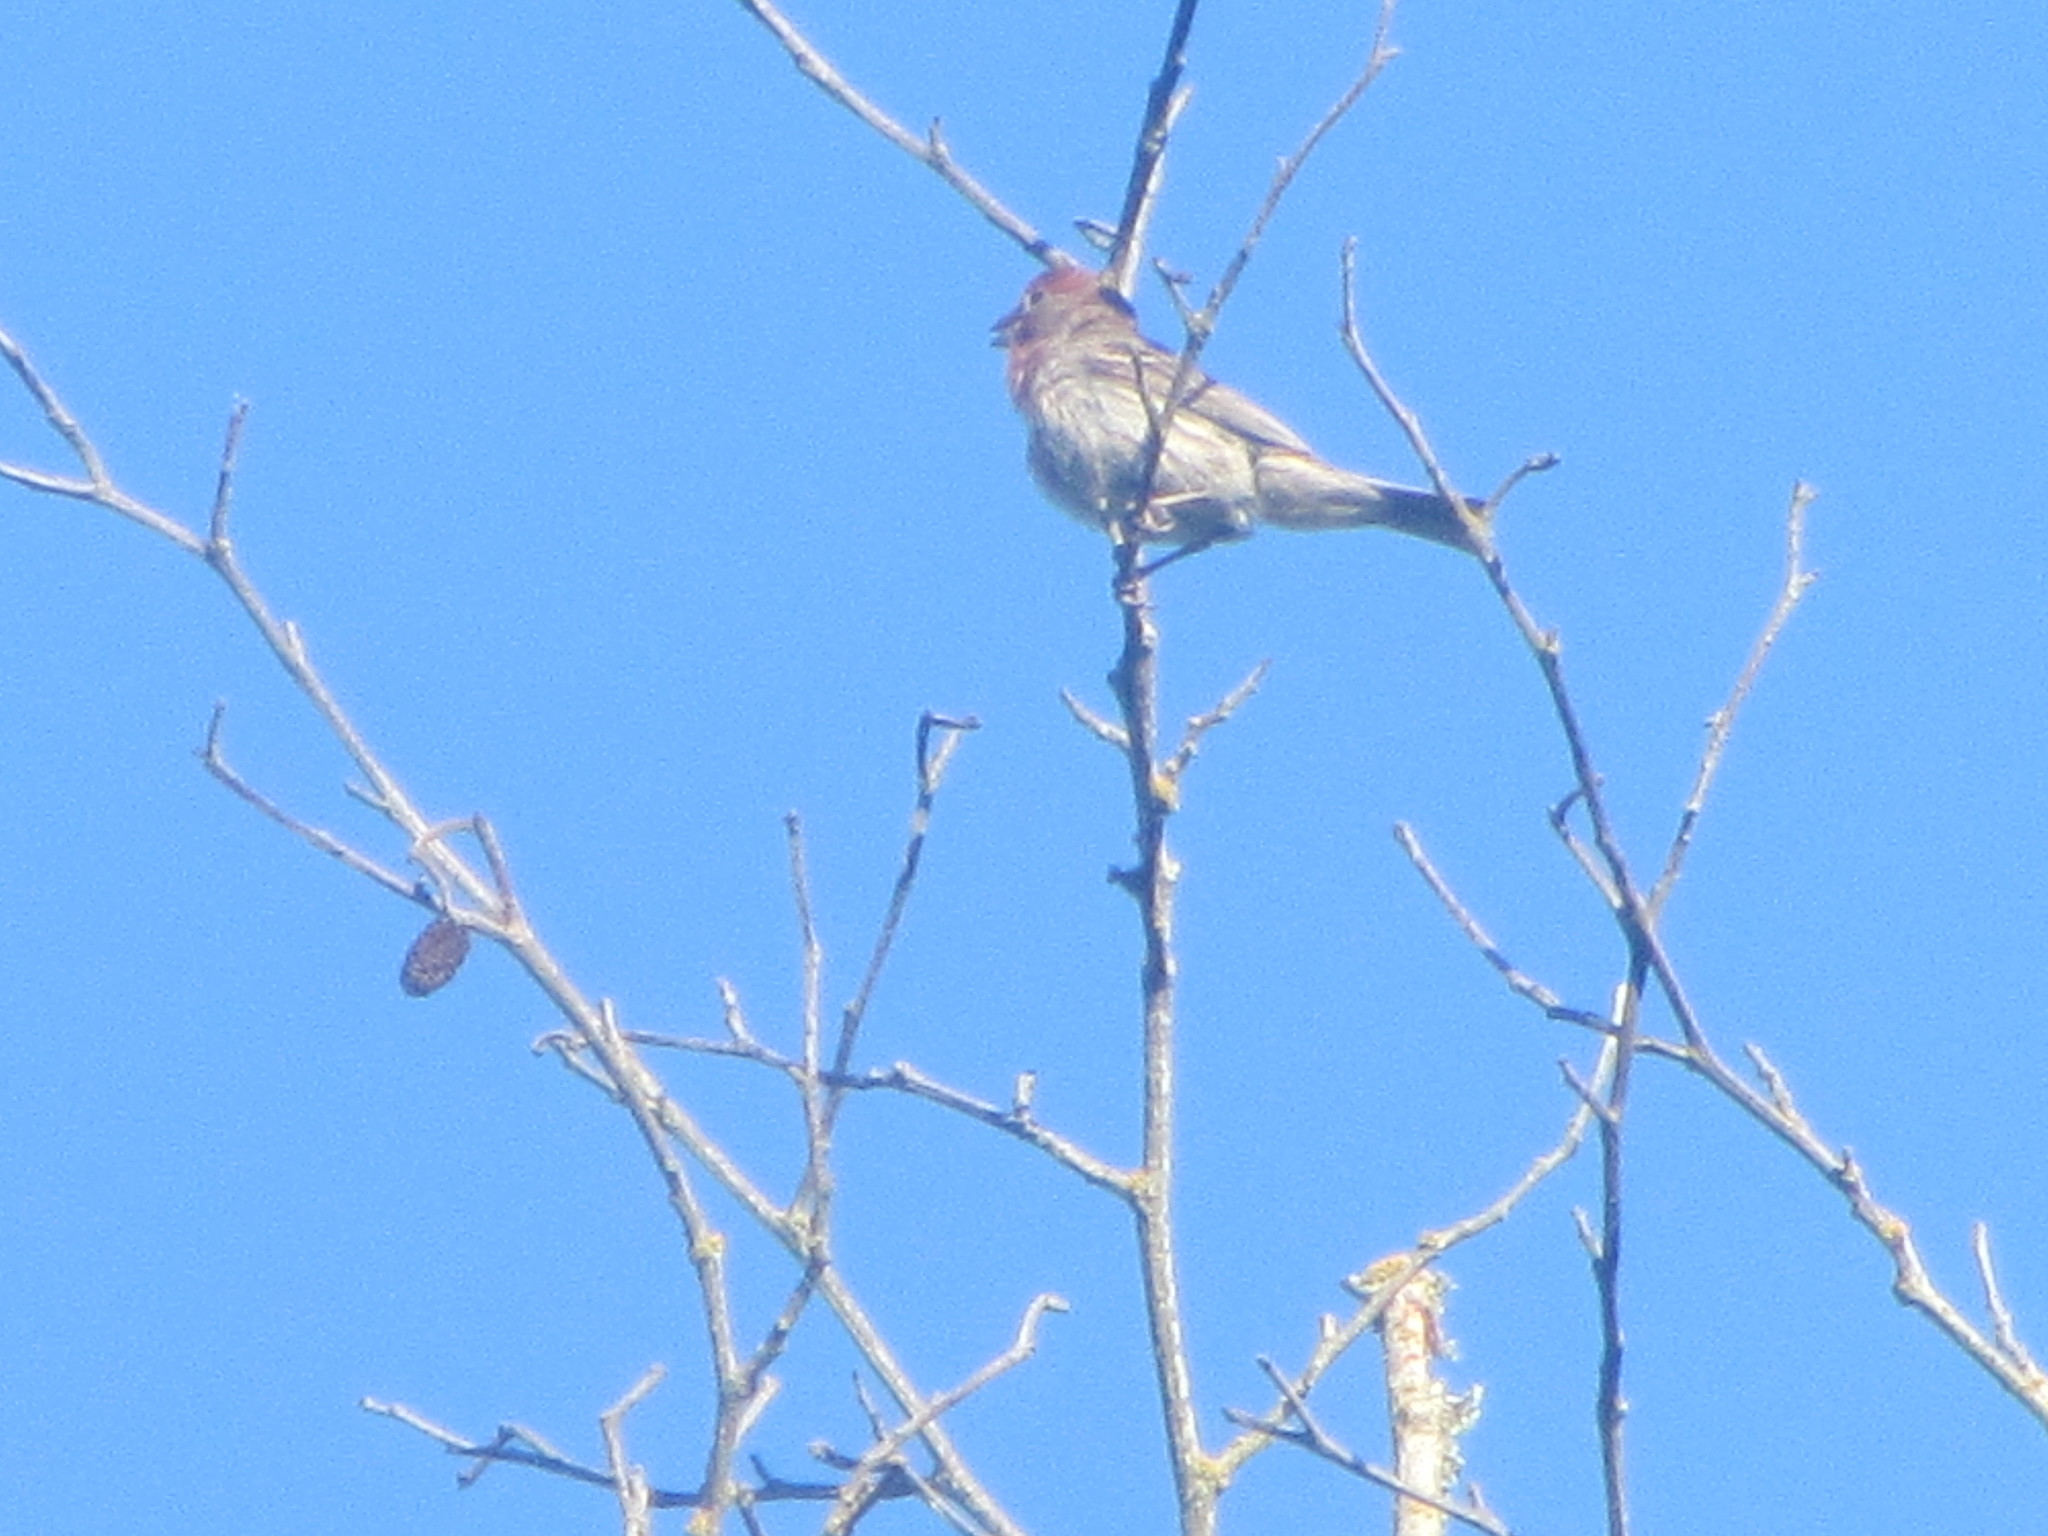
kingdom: Animalia
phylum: Chordata
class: Aves
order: Passeriformes
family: Fringillidae
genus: Haemorhous
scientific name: Haemorhous mexicanus
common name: House finch
